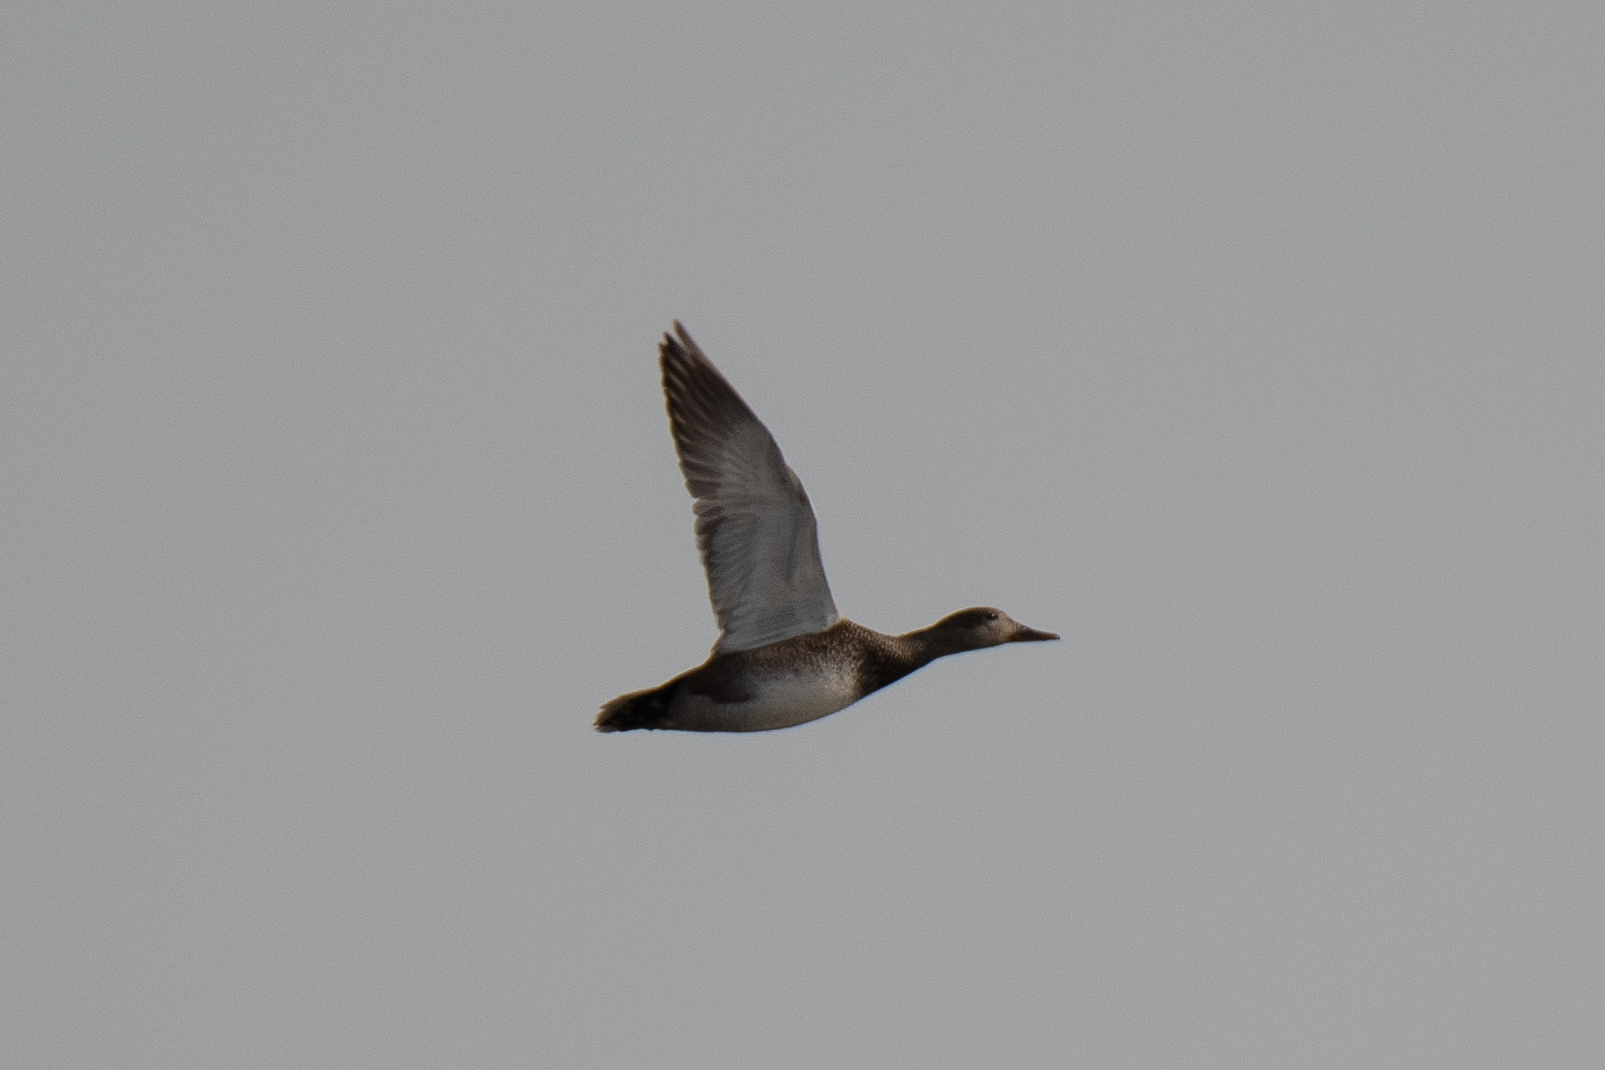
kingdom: Animalia
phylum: Chordata
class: Aves
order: Anseriformes
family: Anatidae
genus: Mareca
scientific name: Mareca strepera
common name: Gadwall
